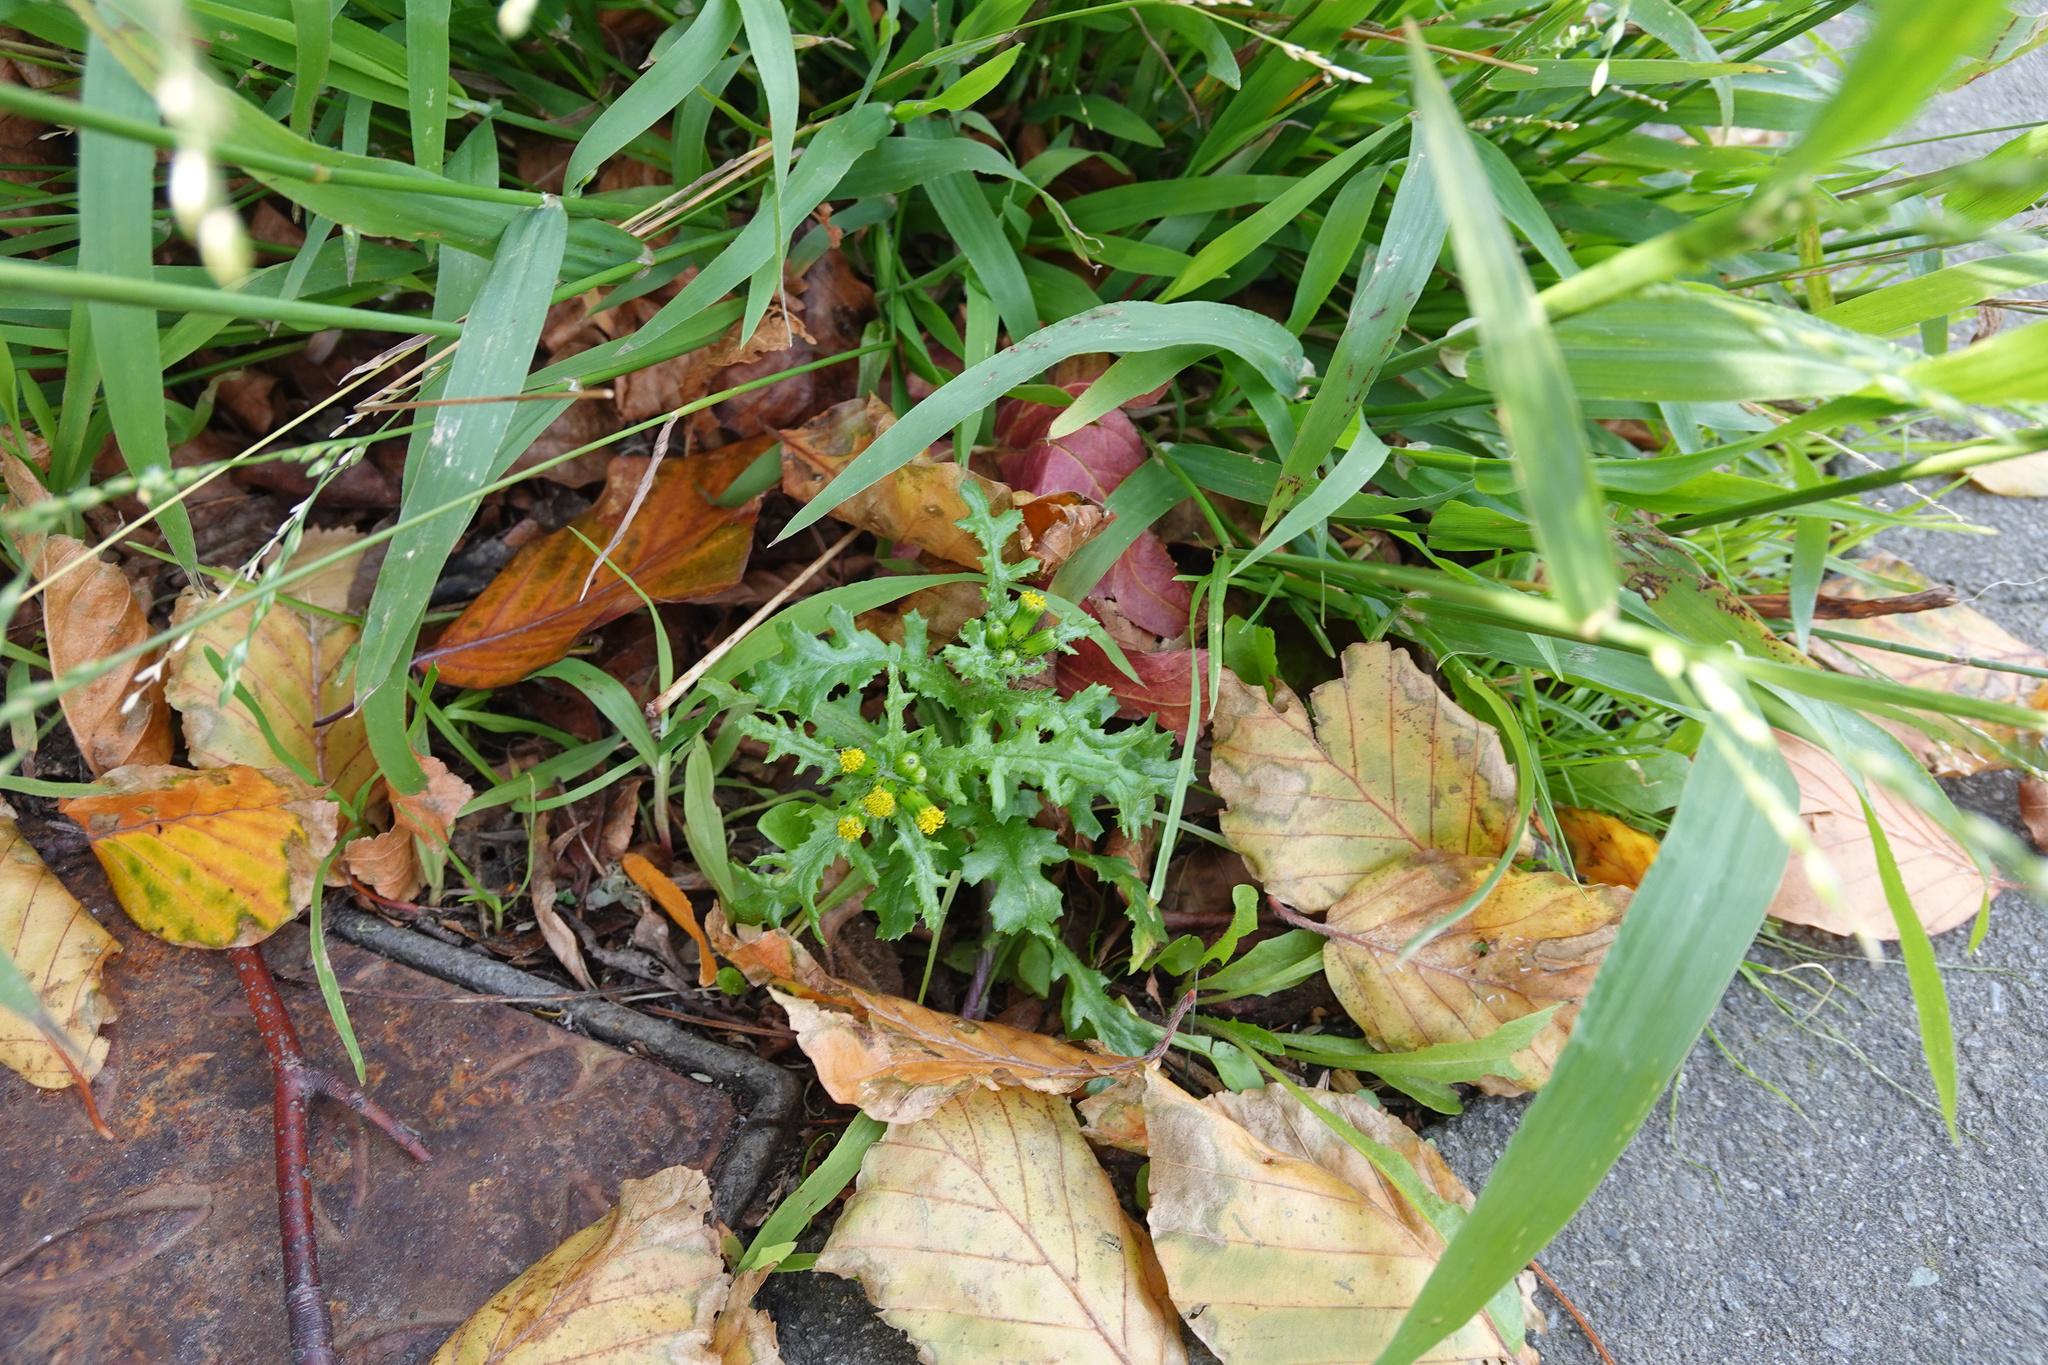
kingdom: Plantae
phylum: Tracheophyta
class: Magnoliopsida
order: Asterales
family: Asteraceae
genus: Senecio
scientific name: Senecio vulgaris
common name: Old-man-in-the-spring
